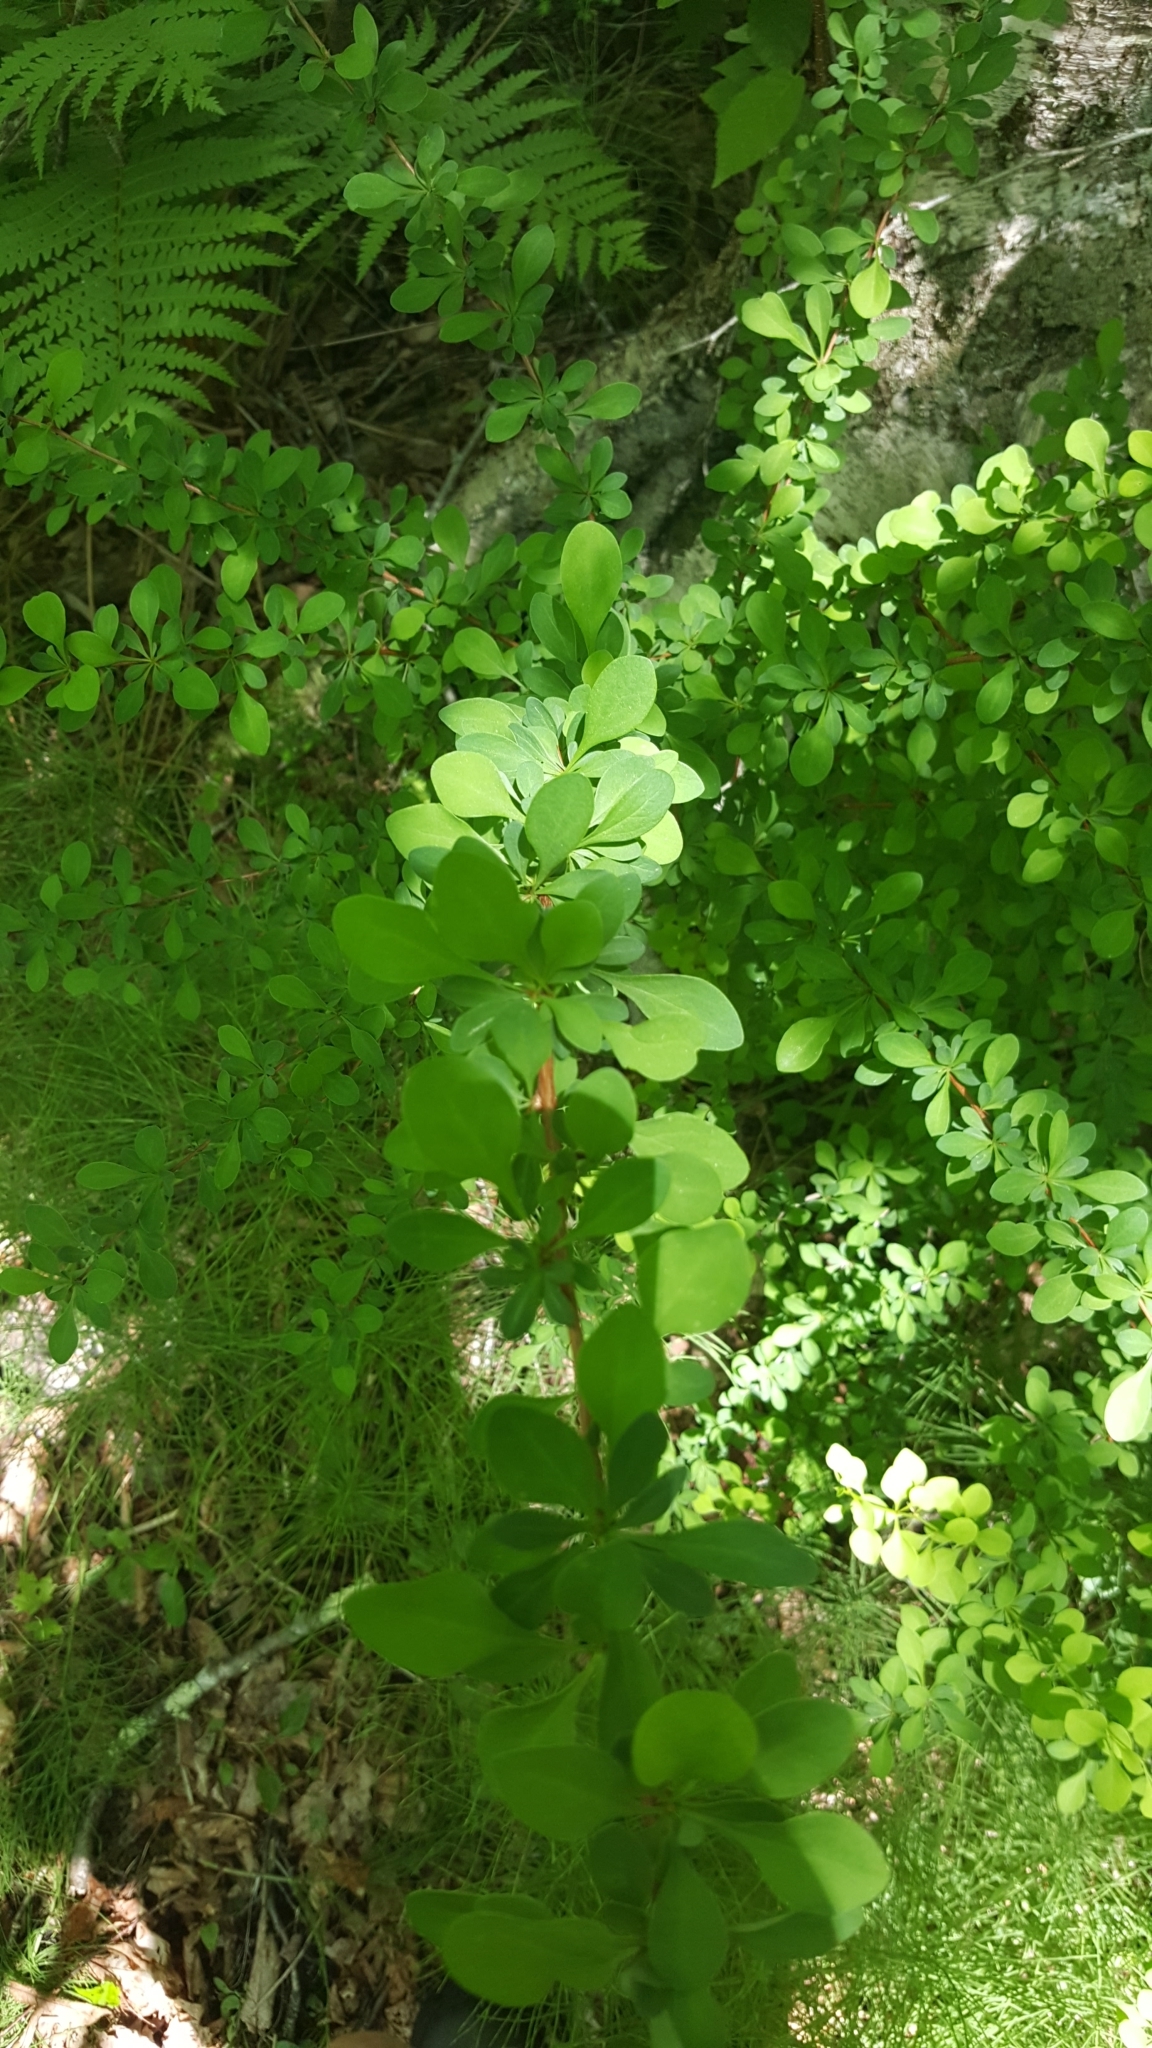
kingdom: Plantae
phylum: Tracheophyta
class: Magnoliopsida
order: Ranunculales
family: Berberidaceae
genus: Berberis
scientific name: Berberis thunbergii
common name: Japanese barberry
